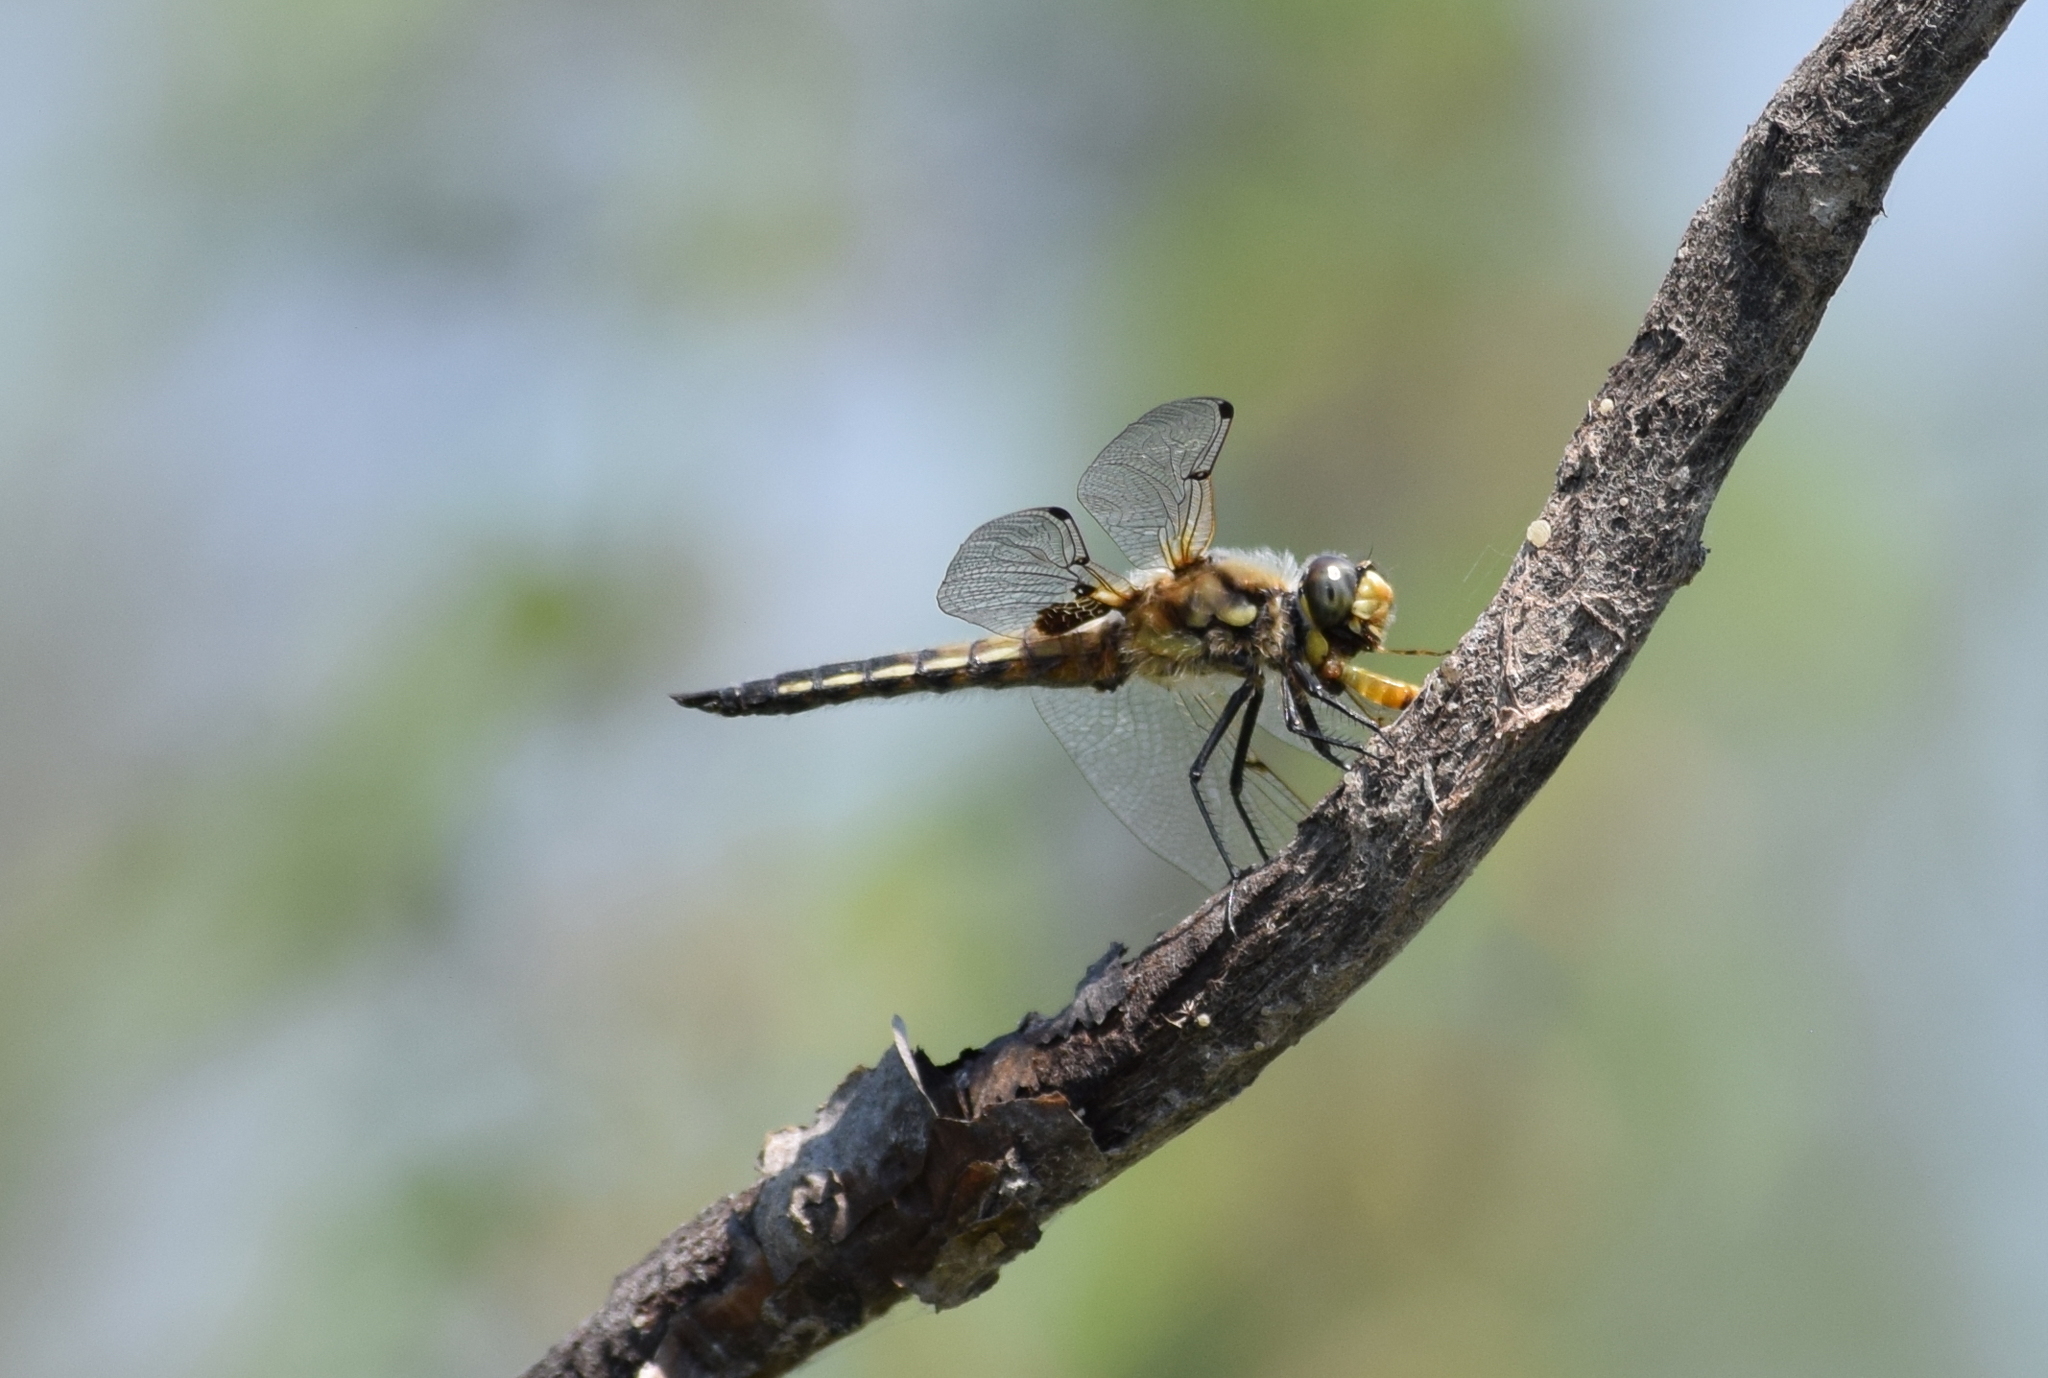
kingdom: Animalia
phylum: Arthropoda
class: Insecta
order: Odonata
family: Libellulidae
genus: Libellula
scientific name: Libellula quadrimaculata
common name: Four-spotted chaser
